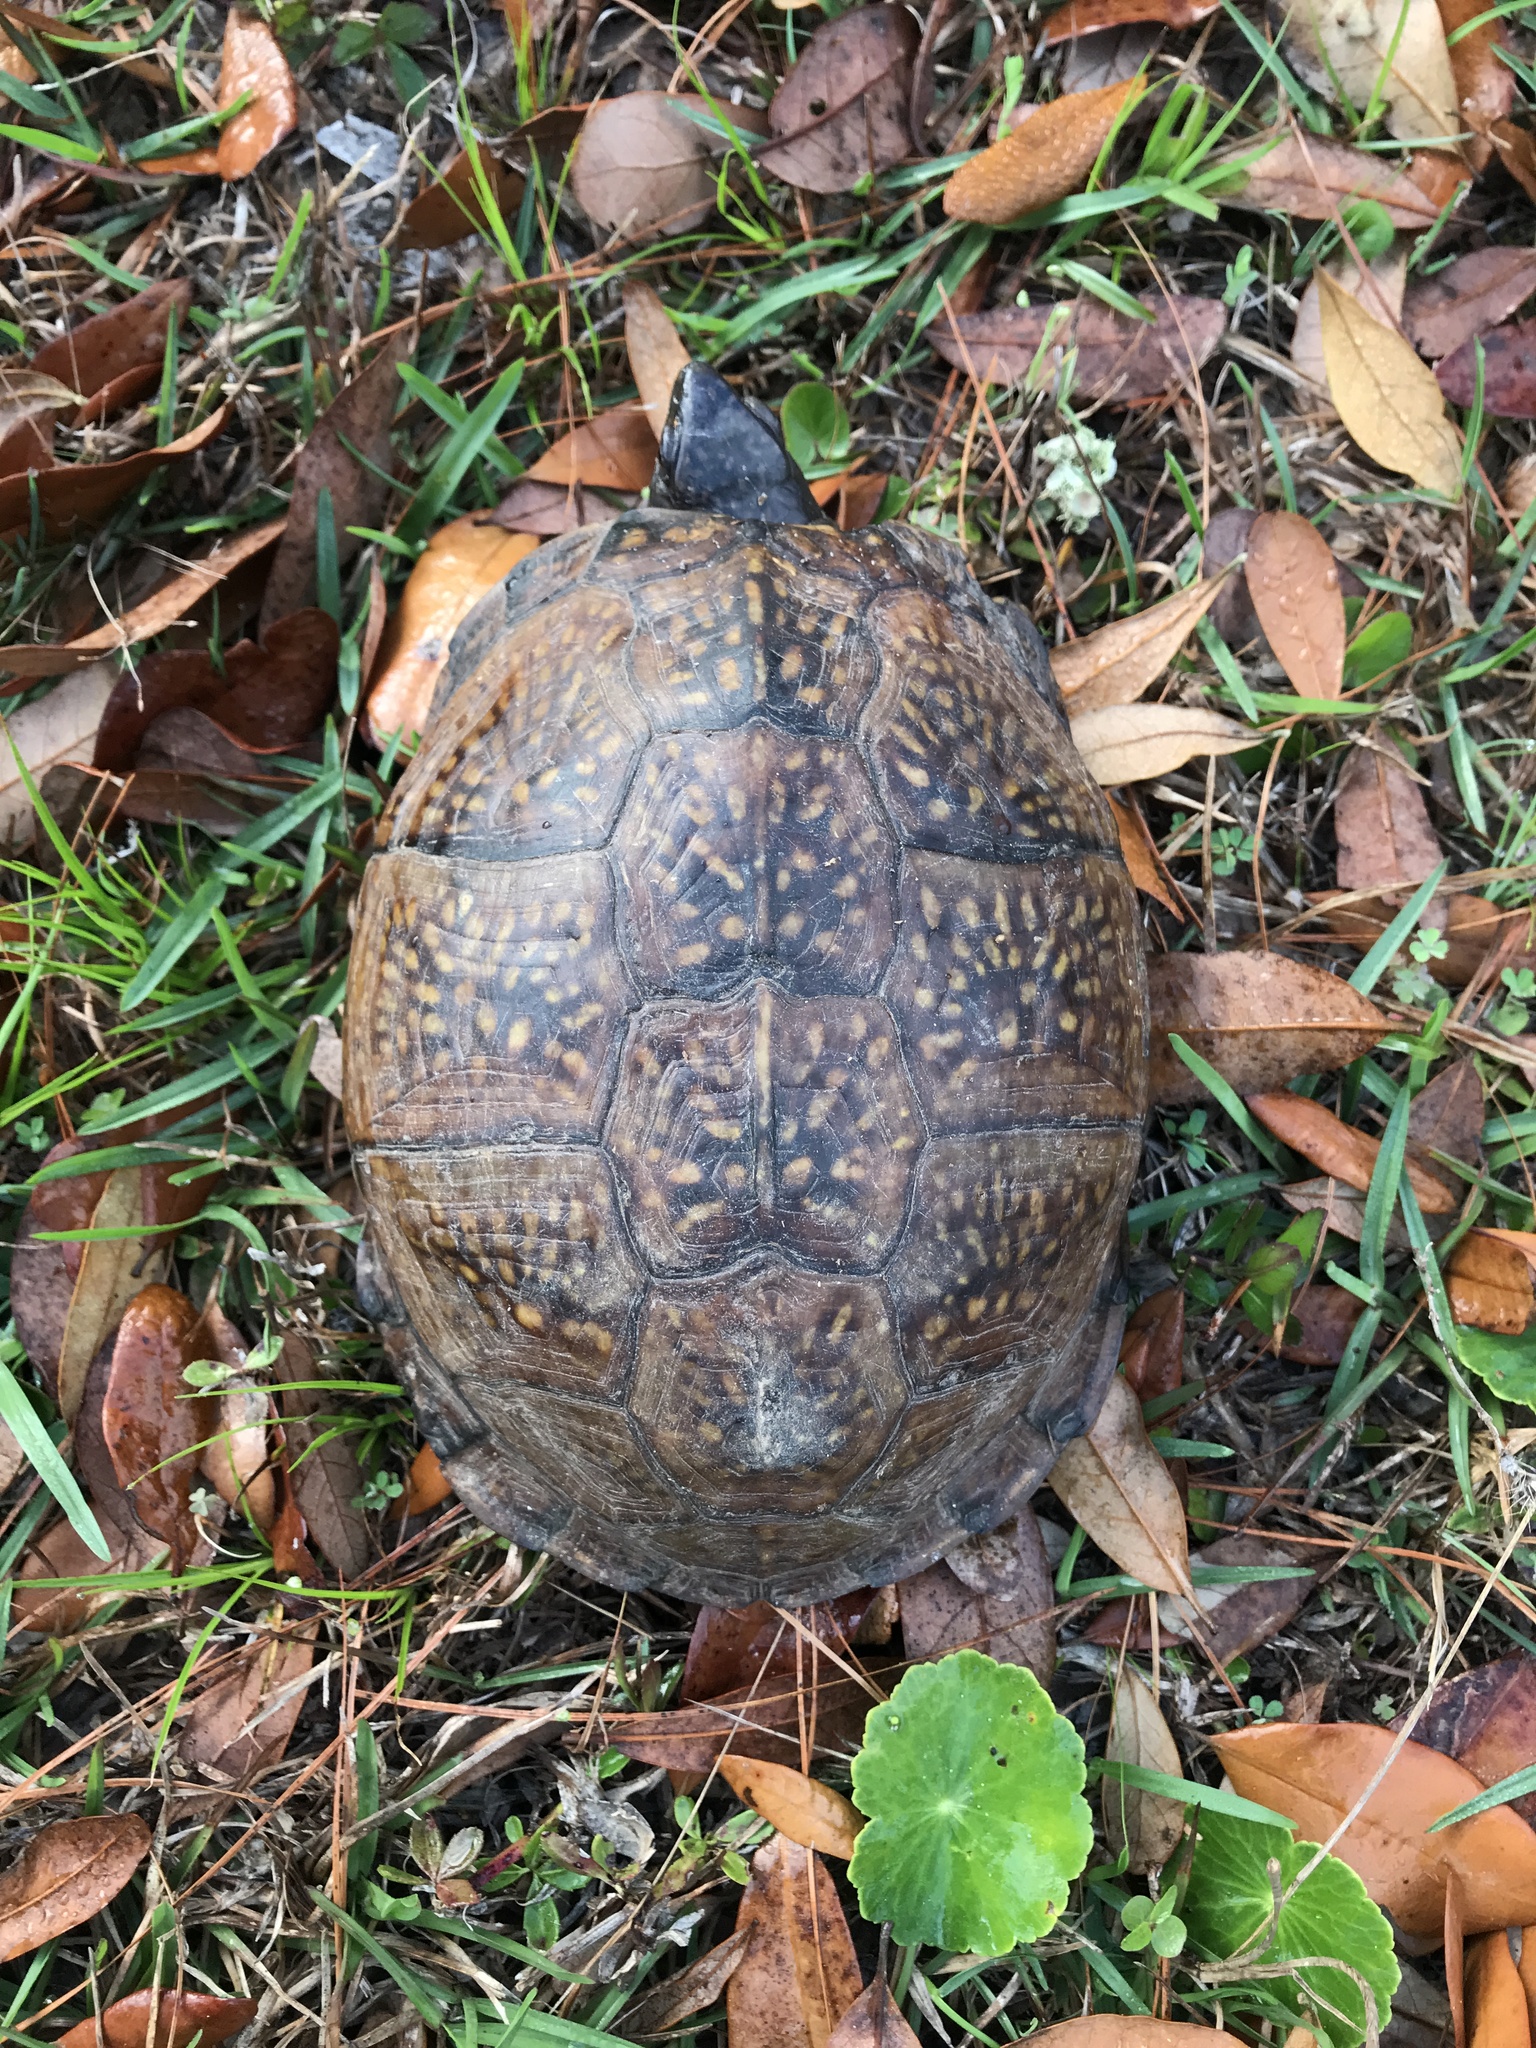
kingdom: Animalia
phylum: Chordata
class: Testudines
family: Emydidae
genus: Terrapene
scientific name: Terrapene carolina
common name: Common box turtle
